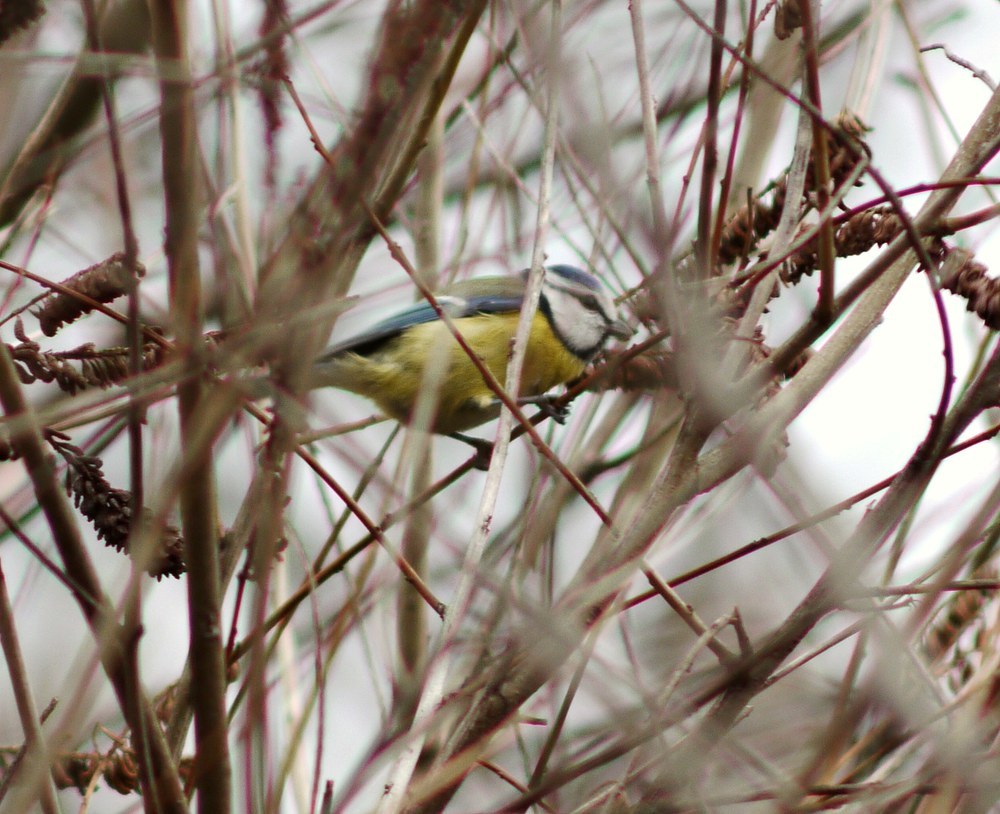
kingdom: Animalia
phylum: Chordata
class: Aves
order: Passeriformes
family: Paridae
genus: Cyanistes
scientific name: Cyanistes caeruleus
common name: Eurasian blue tit
